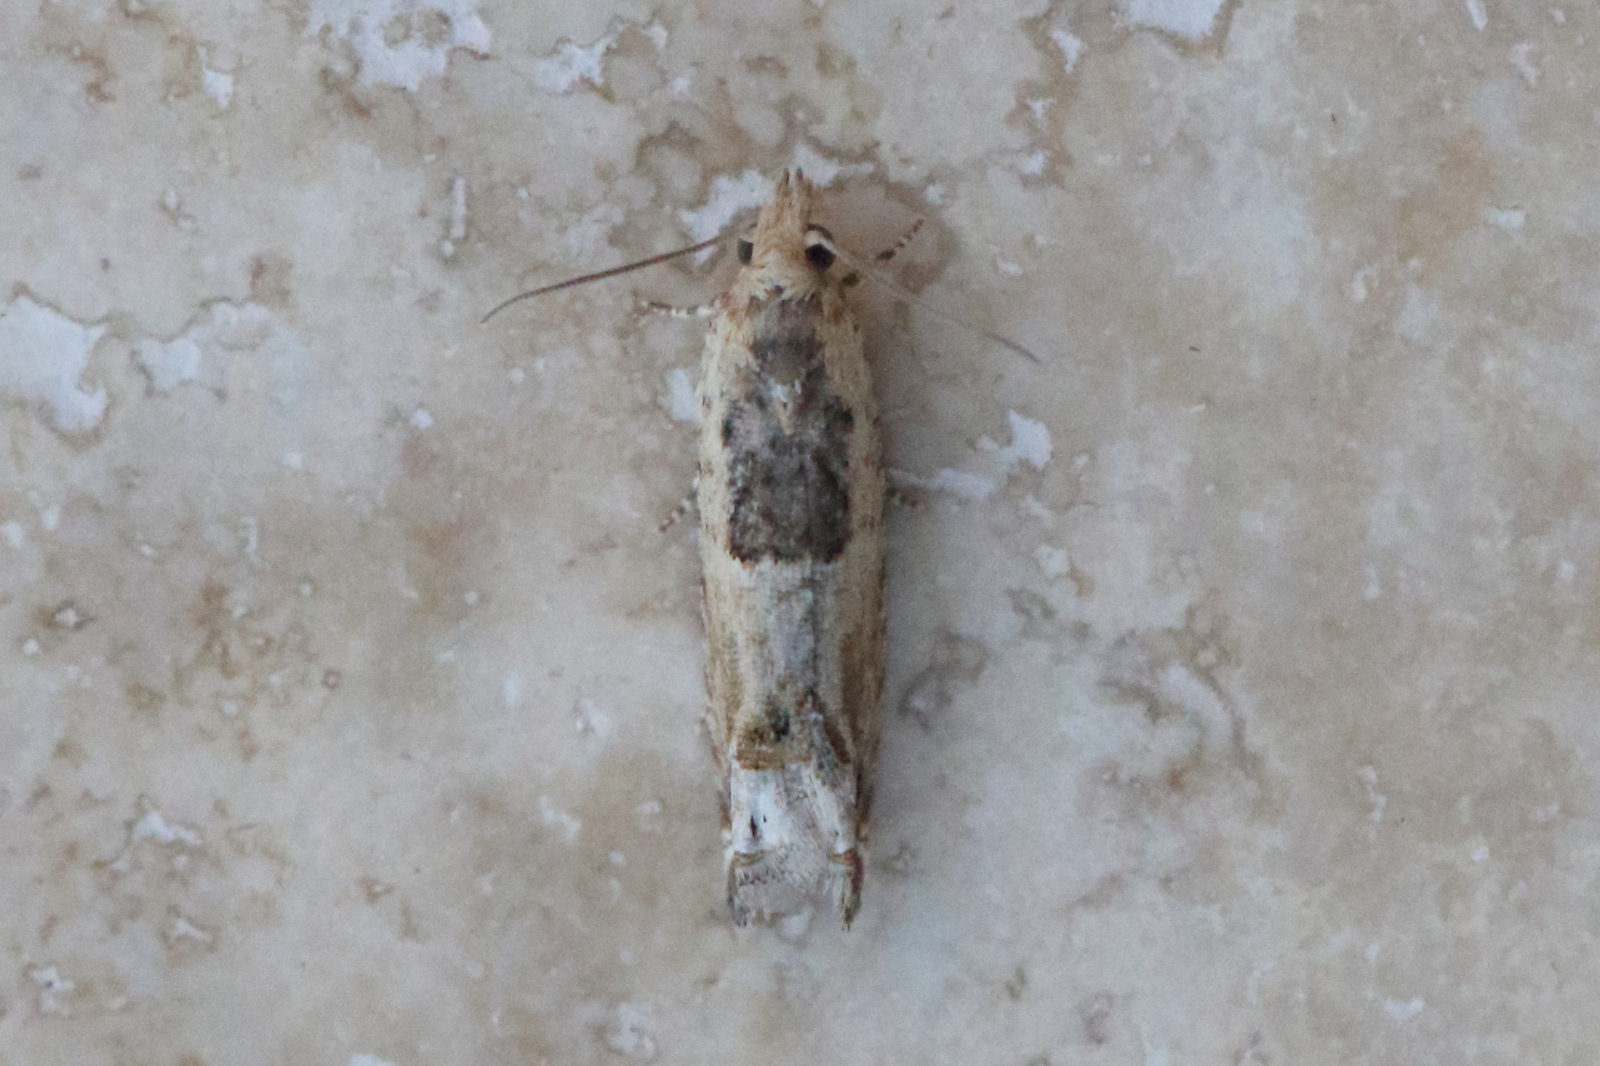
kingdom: Animalia
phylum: Arthropoda
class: Insecta
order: Lepidoptera
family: Tortricidae
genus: Crocidosema
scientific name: Crocidosema plebejana
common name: Southern bell
